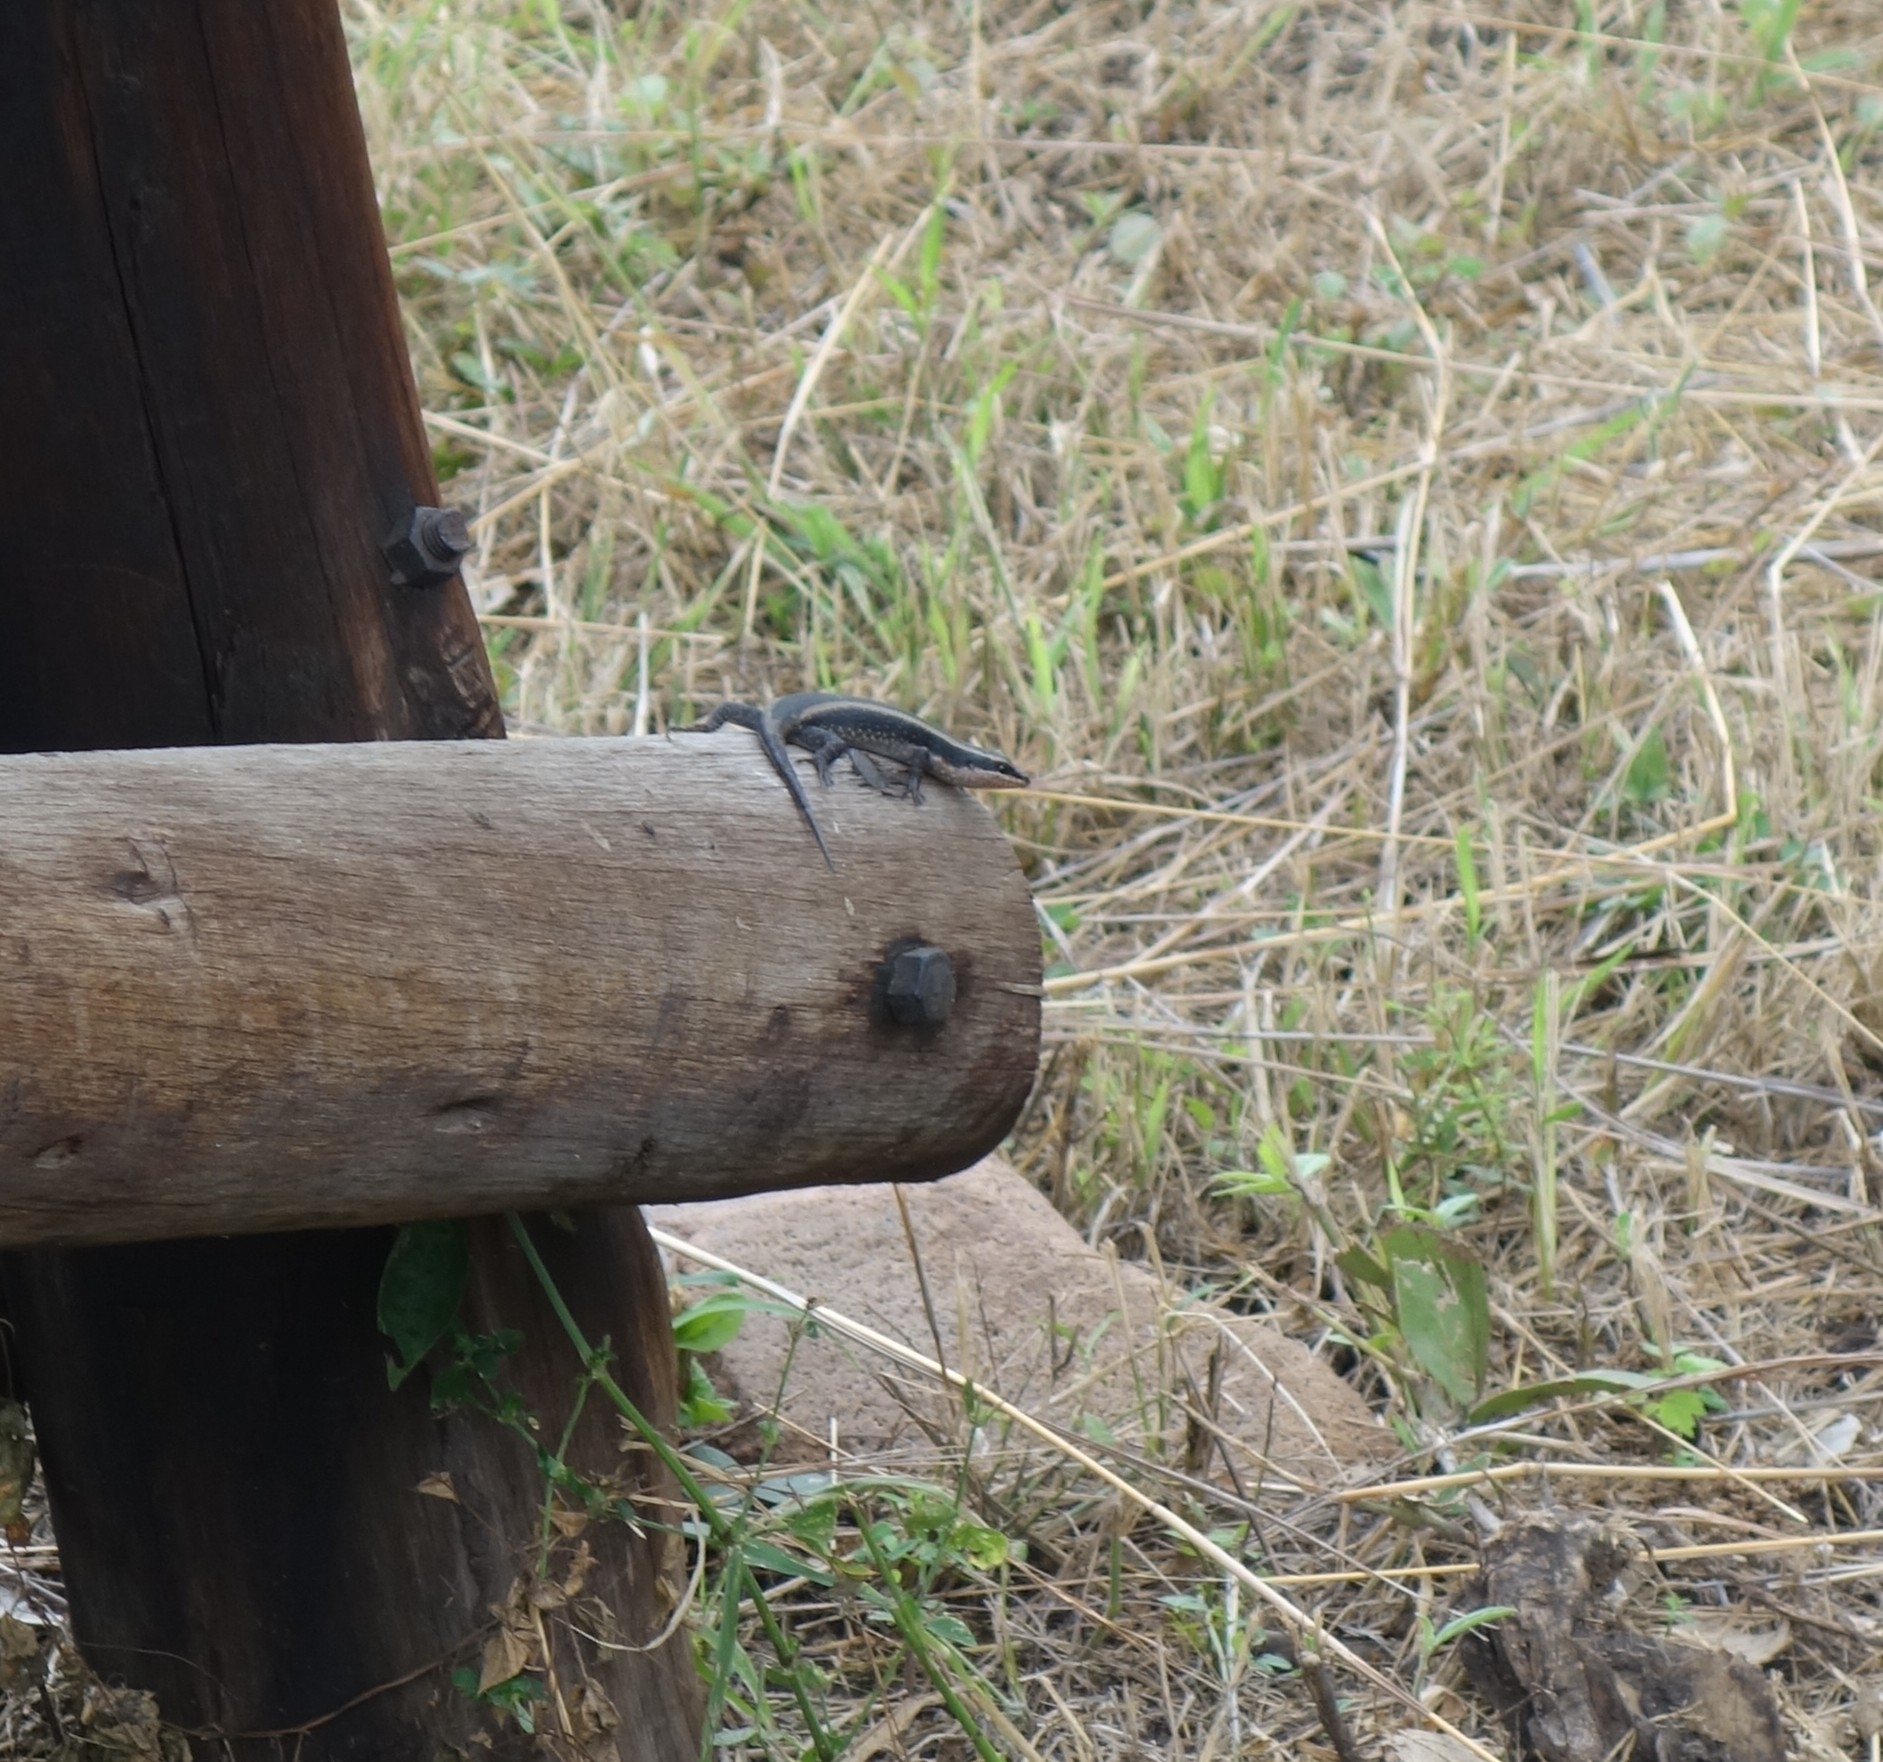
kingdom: Animalia
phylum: Chordata
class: Squamata
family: Scincidae
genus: Trachylepis
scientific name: Trachylepis striata
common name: African striped mabuya
